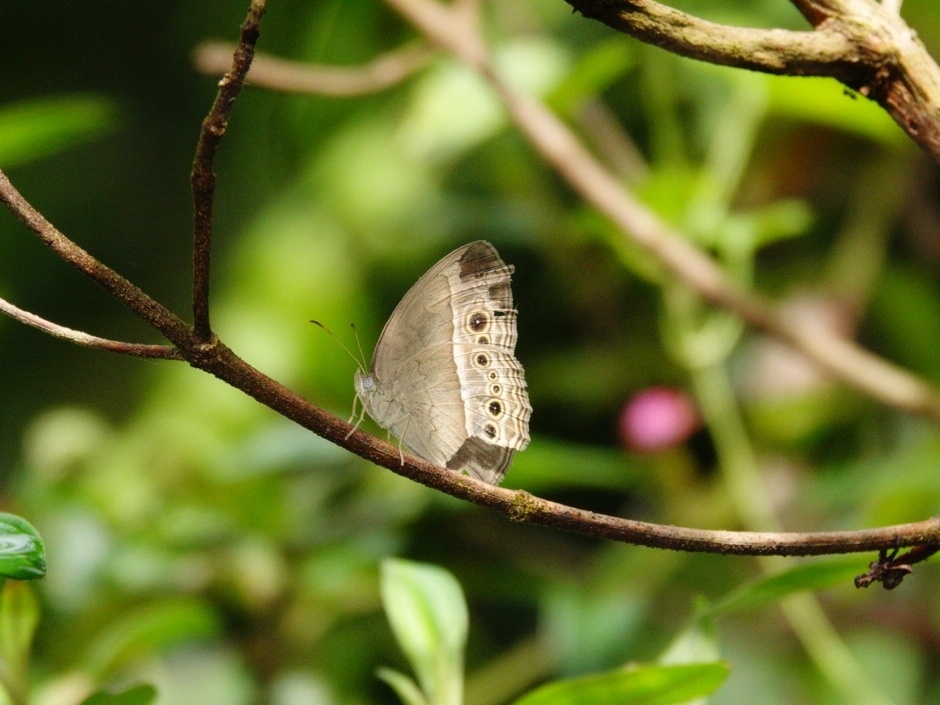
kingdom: Animalia
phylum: Arthropoda
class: Insecta
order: Lepidoptera
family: Nymphalidae
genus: Mycalesis
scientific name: Mycalesis perseoides
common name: Burmese bushbrown
